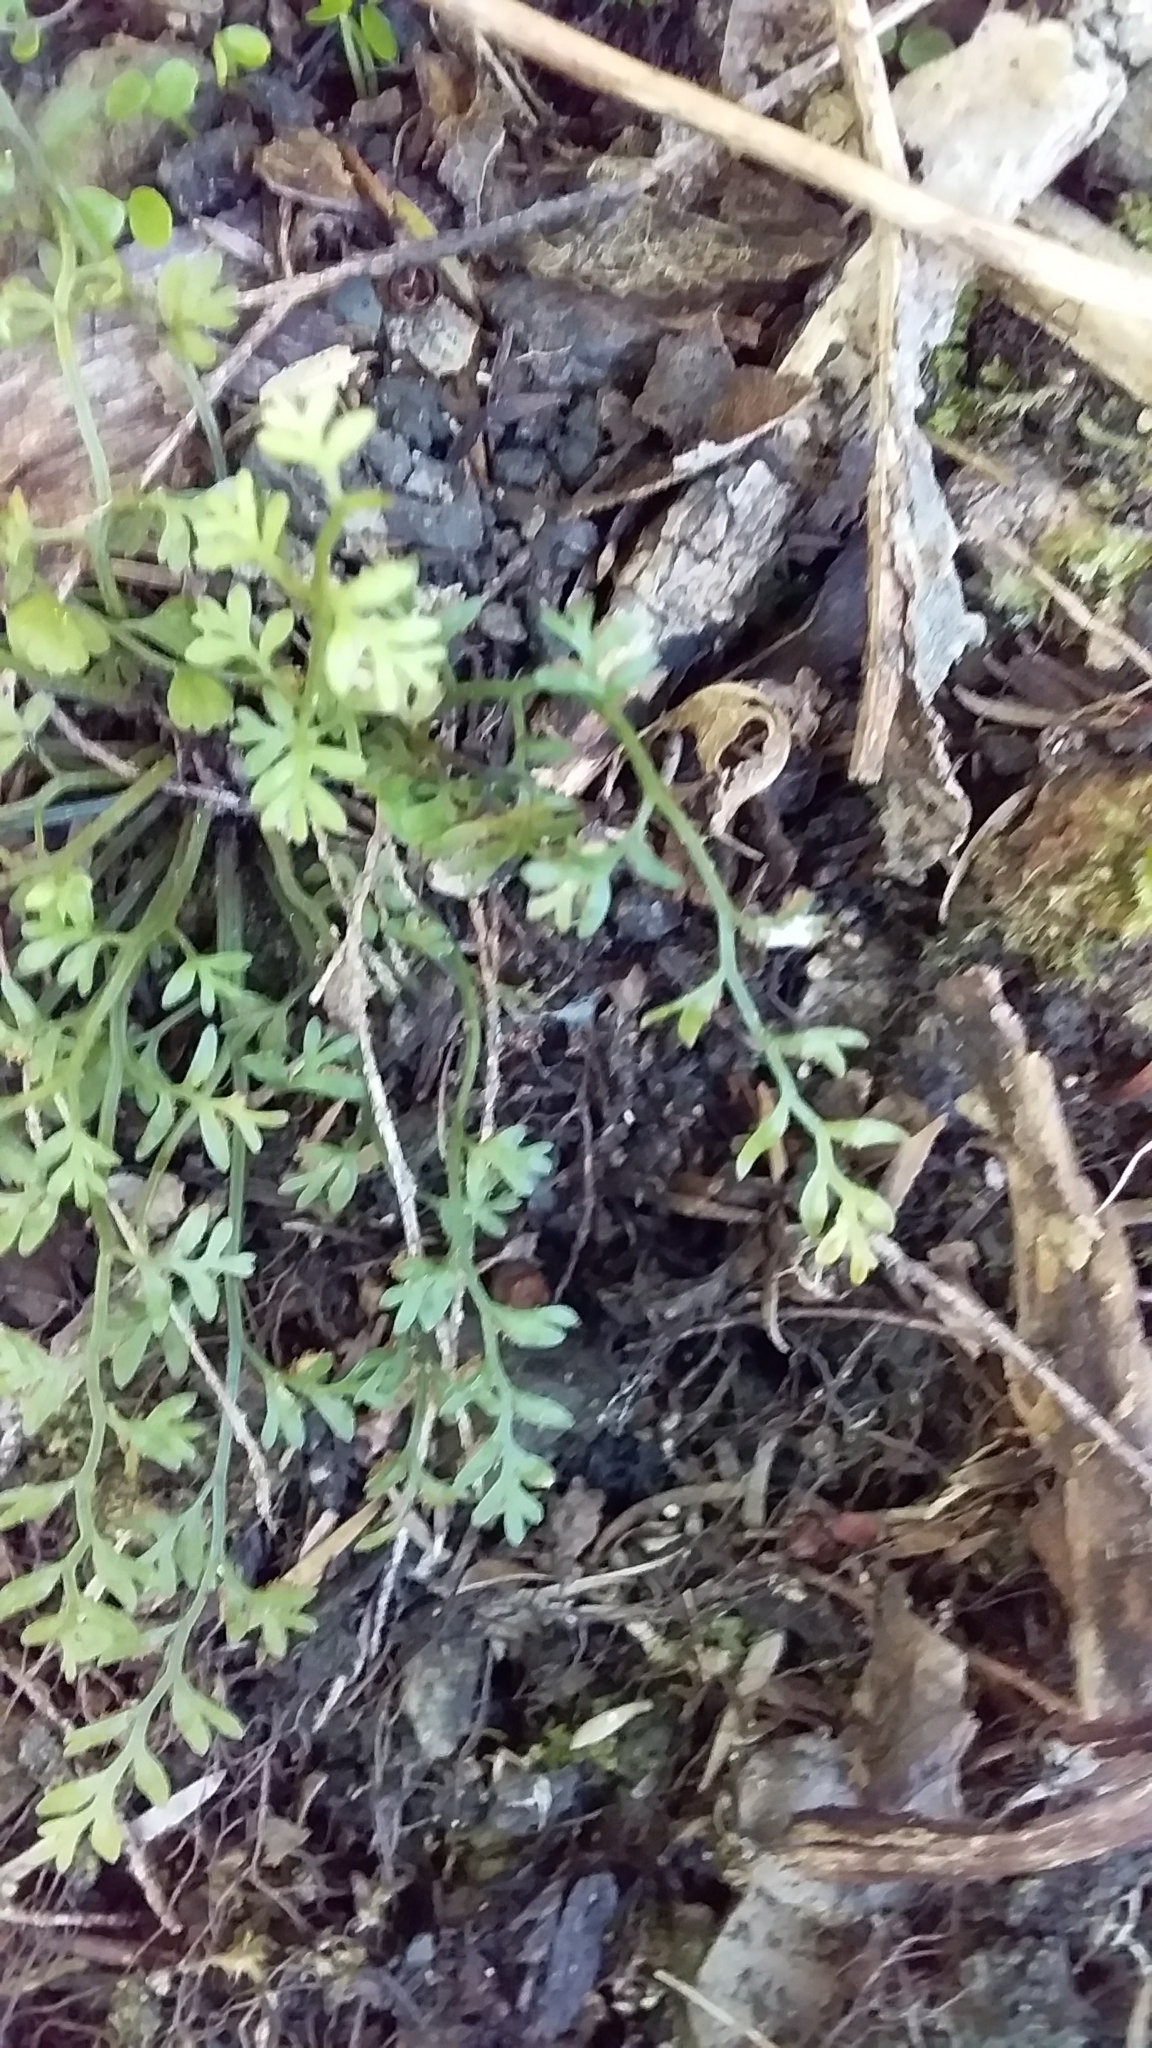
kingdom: Plantae
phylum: Tracheophyta
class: Polypodiopsida
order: Polypodiales
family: Aspleniaceae
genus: Asplenium
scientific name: Asplenium hookerianum
